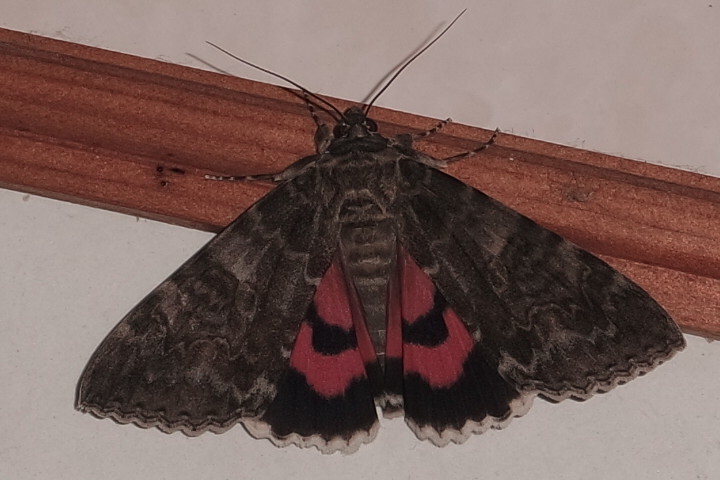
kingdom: Animalia
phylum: Arthropoda
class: Insecta
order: Lepidoptera
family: Erebidae
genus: Catocala
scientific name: Catocala nupta
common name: Red underwing
